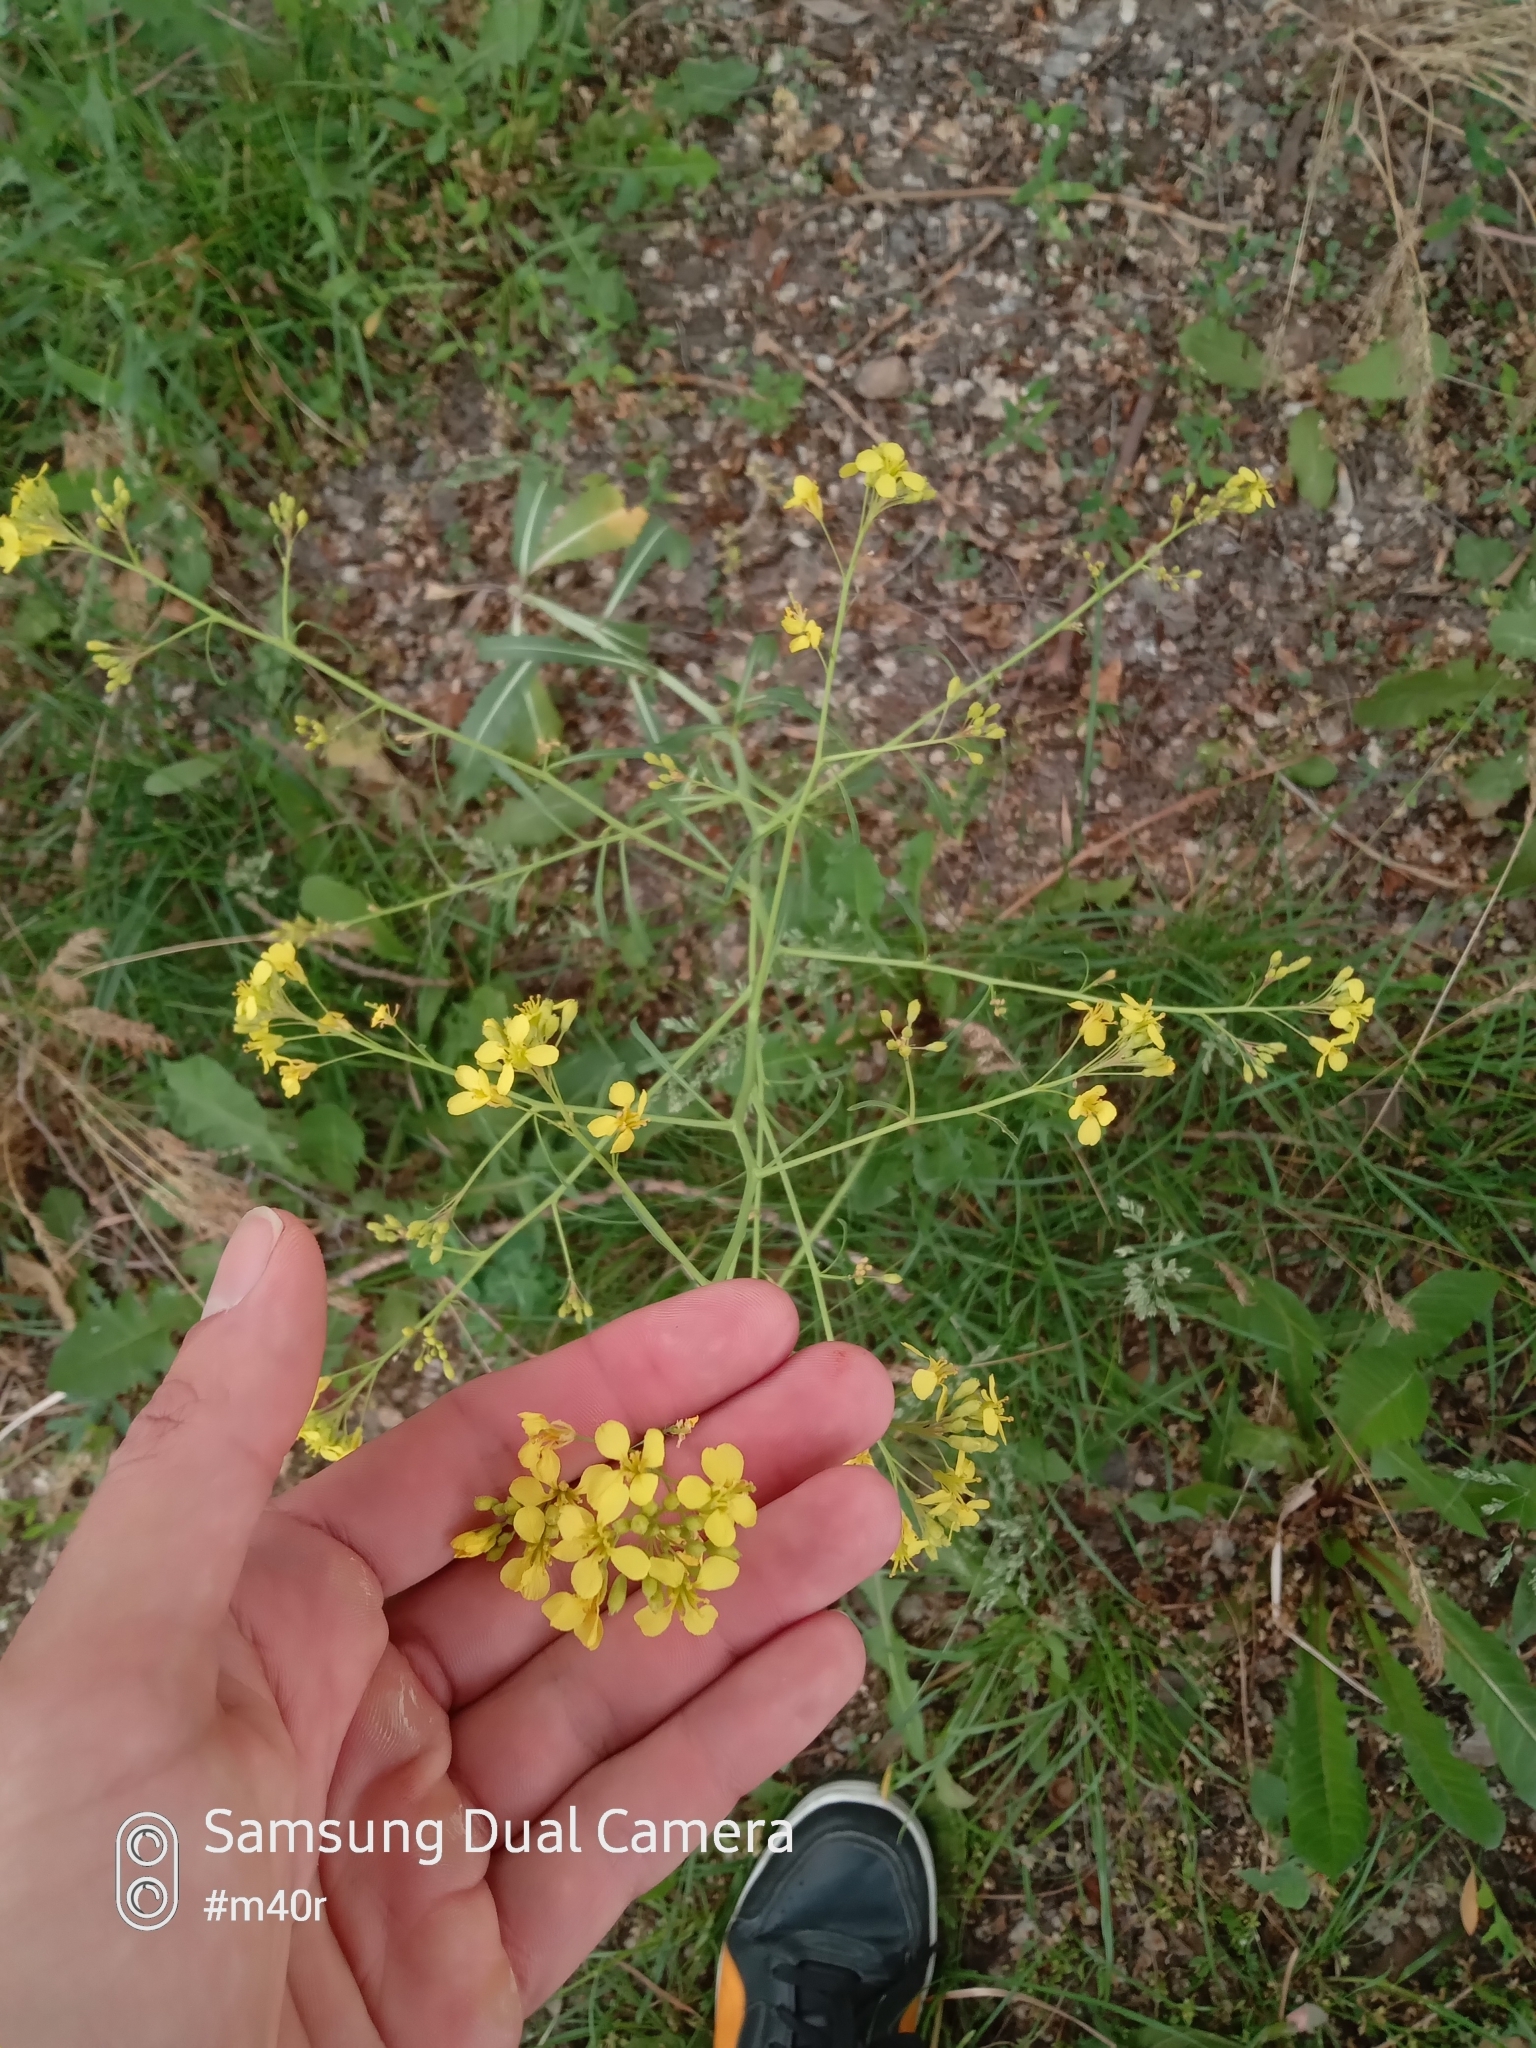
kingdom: Plantae
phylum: Tracheophyta
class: Magnoliopsida
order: Brassicales
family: Brassicaceae
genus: Brassica
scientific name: Brassica elongata
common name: Long-stalked rape
